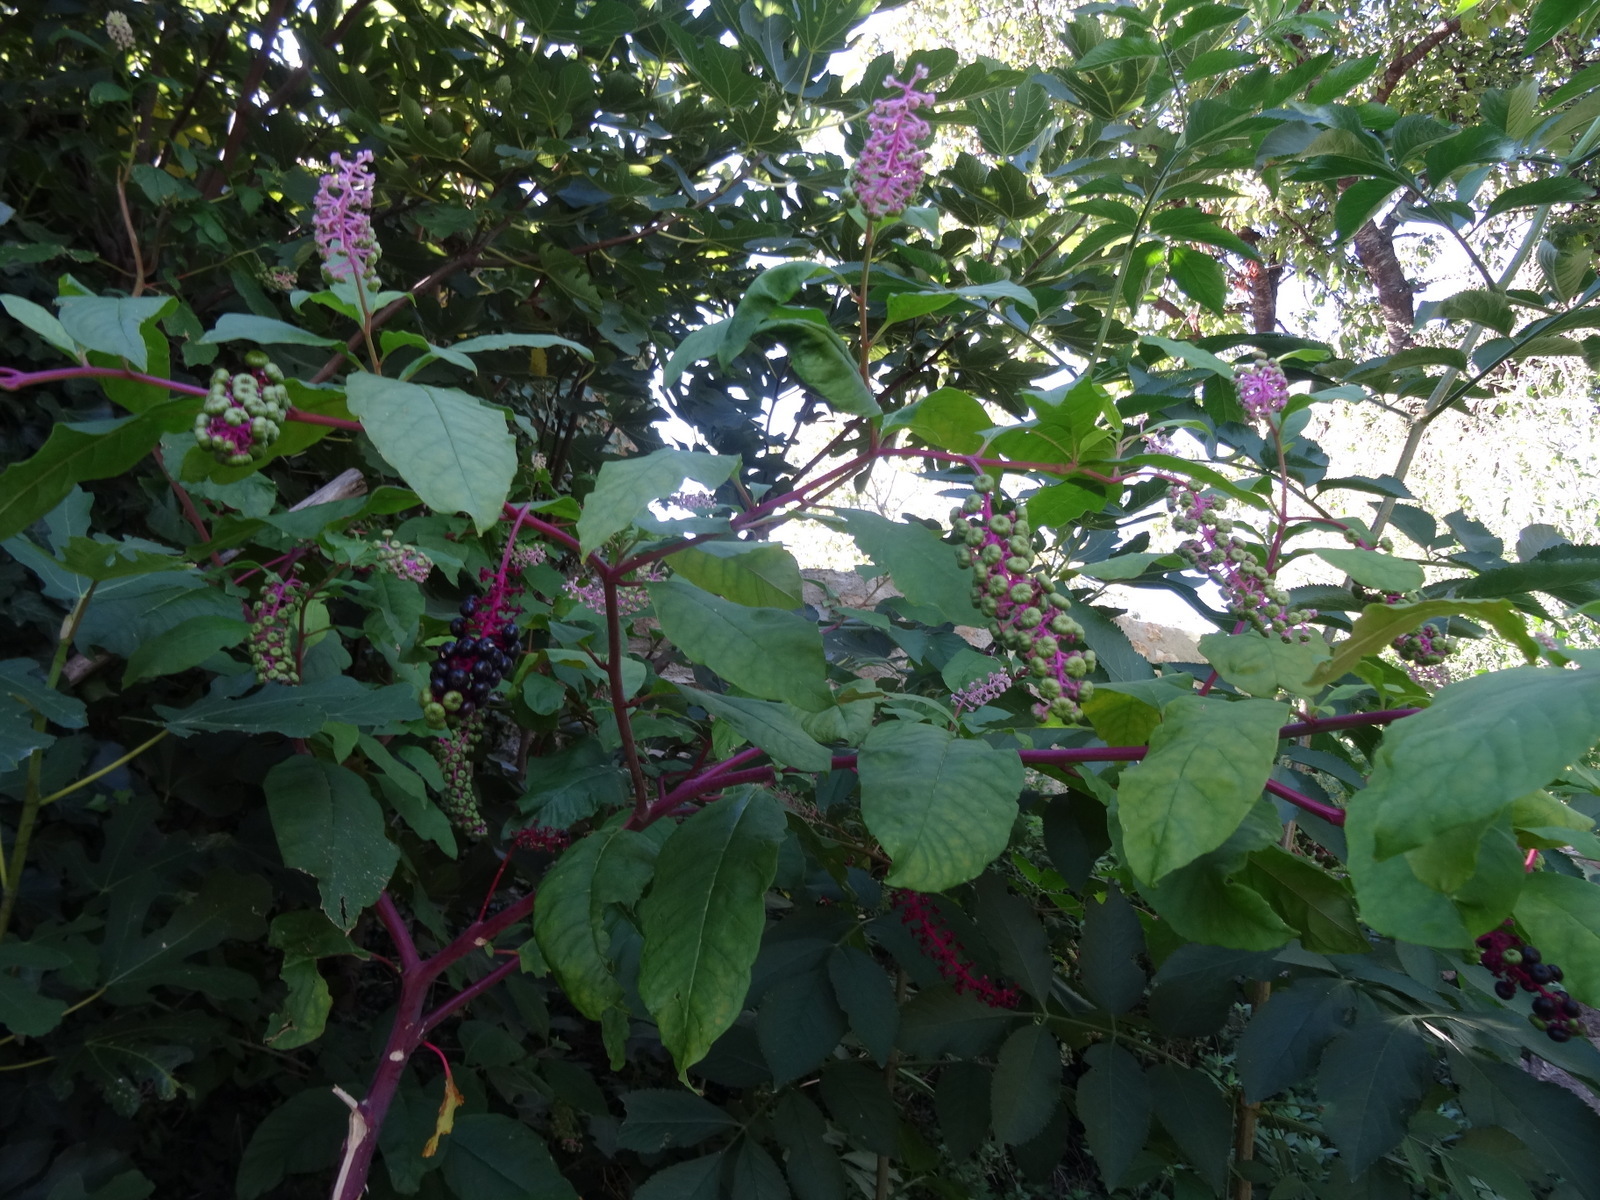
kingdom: Plantae
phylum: Tracheophyta
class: Magnoliopsida
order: Caryophyllales
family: Phytolaccaceae
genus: Phytolacca
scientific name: Phytolacca americana
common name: American pokeweed
